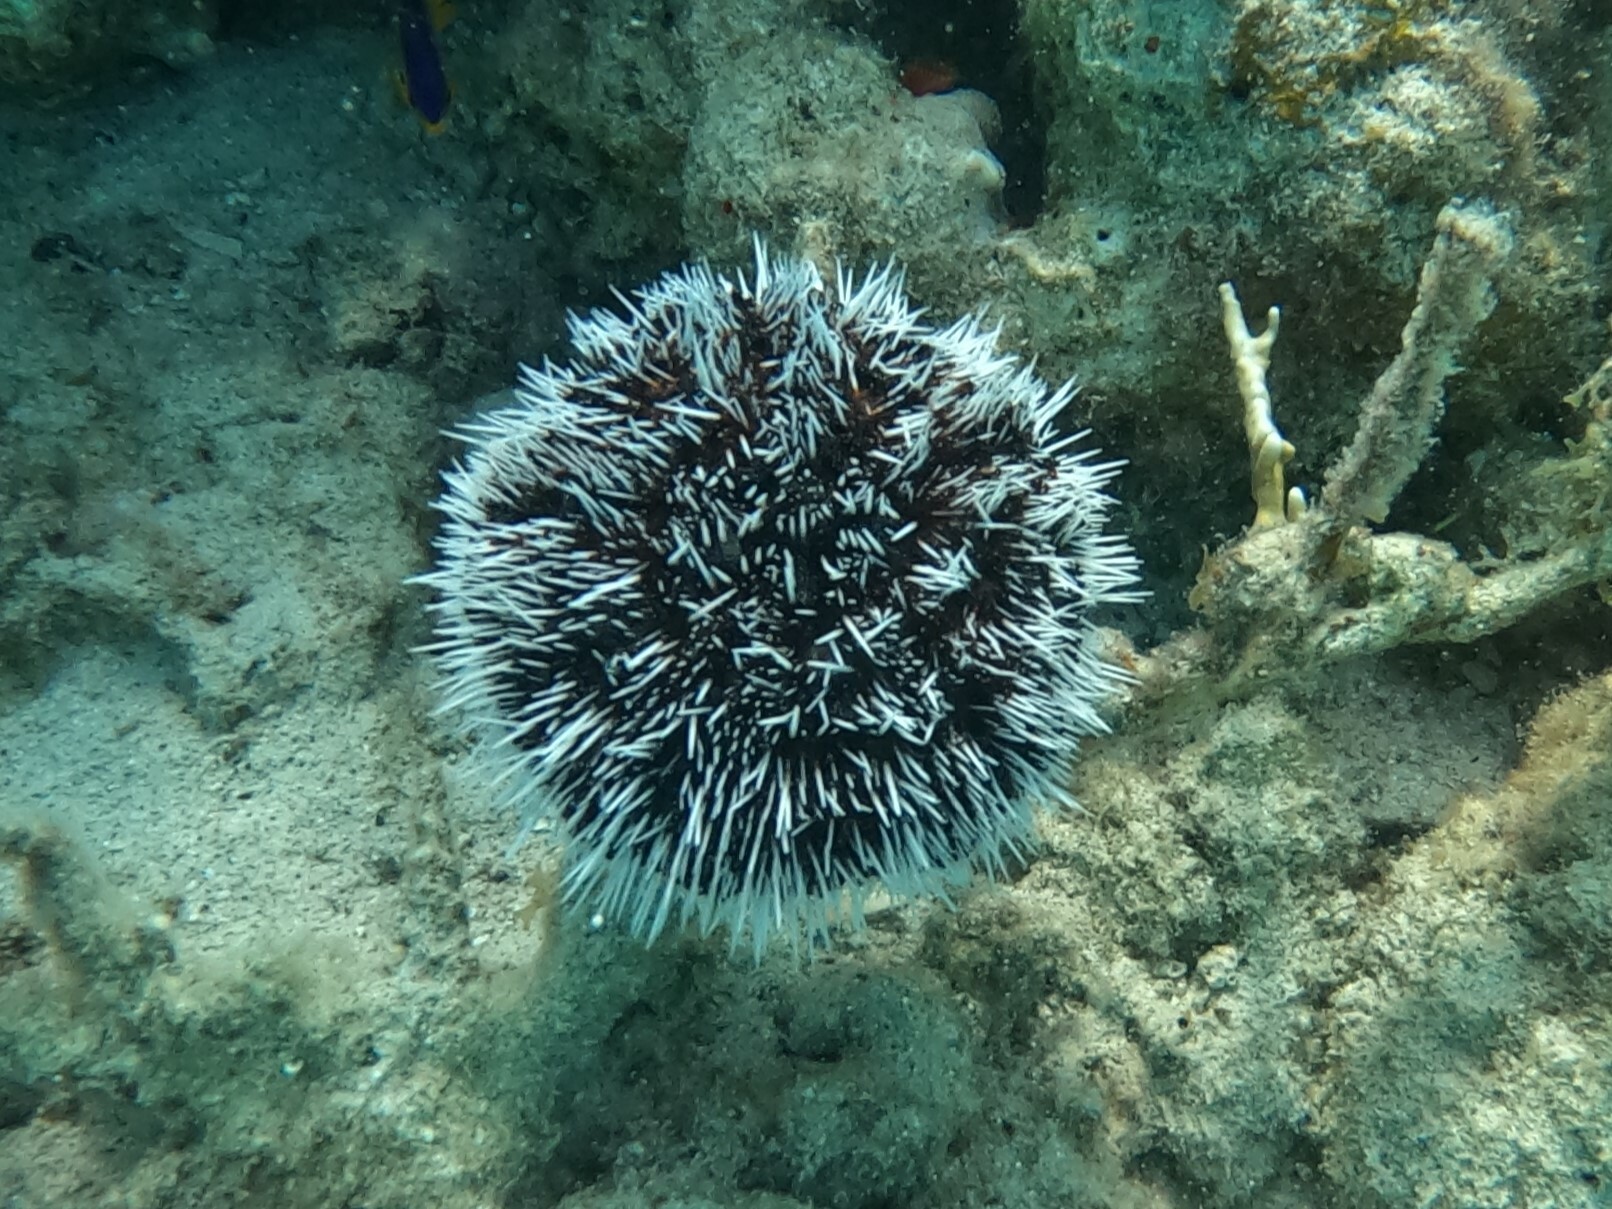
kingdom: Animalia
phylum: Echinodermata
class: Echinoidea
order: Camarodonta
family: Toxopneustidae
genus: Tripneustes
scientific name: Tripneustes ventricosus
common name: West indian sea egg
